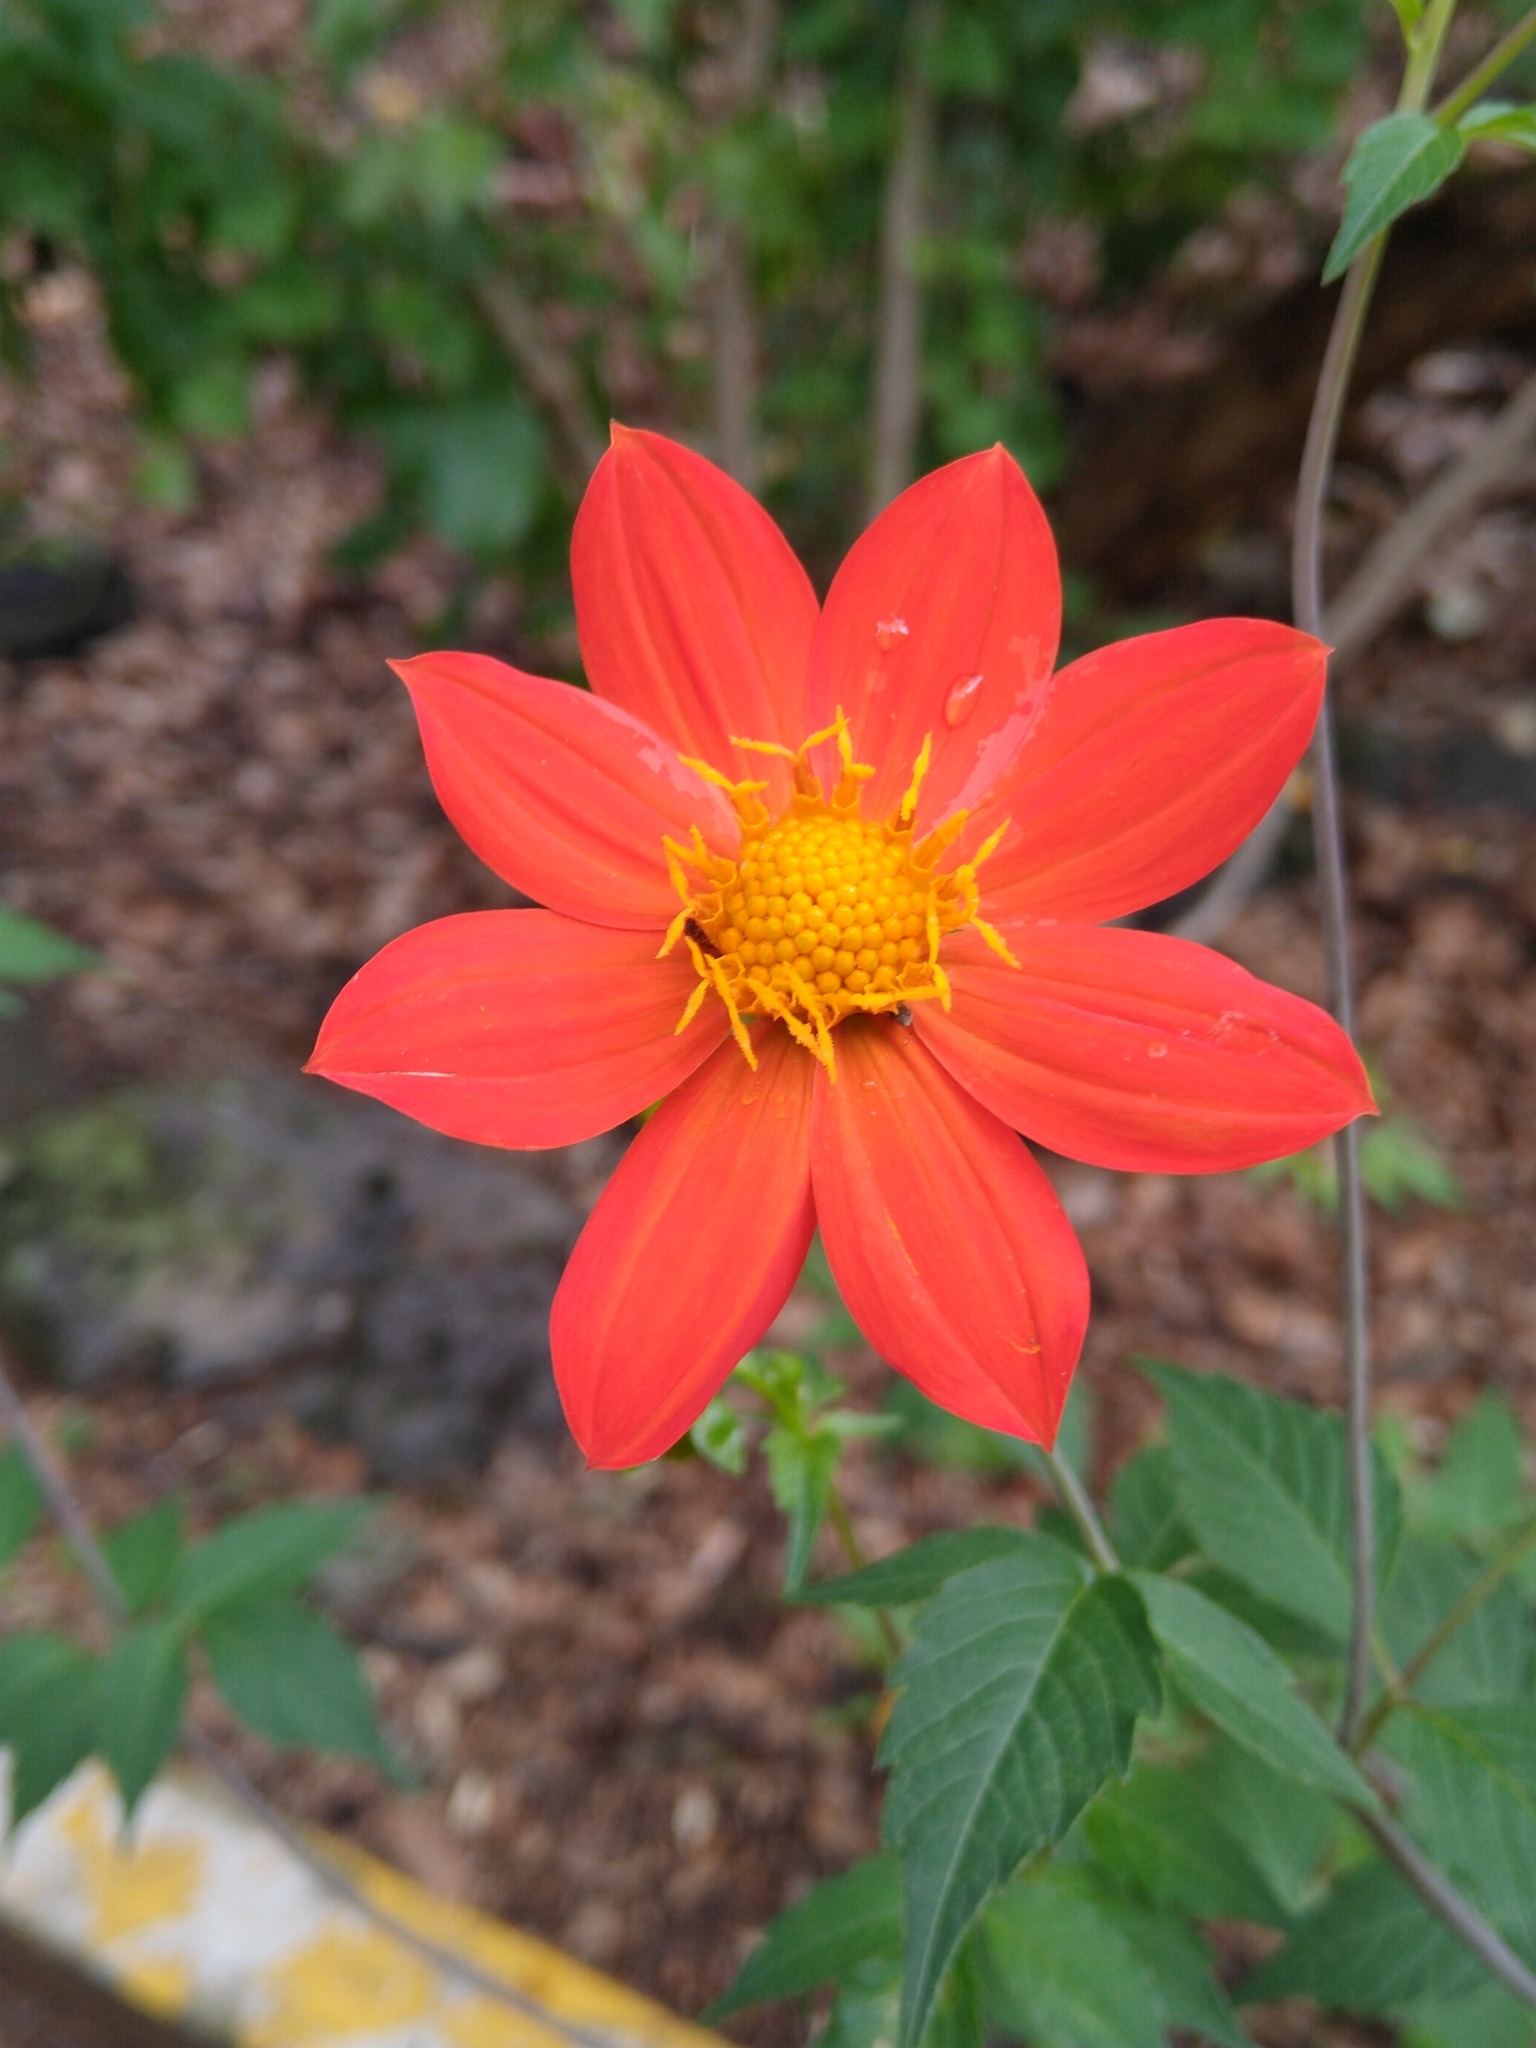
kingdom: Plantae
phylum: Tracheophyta
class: Magnoliopsida
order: Asterales
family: Asteraceae
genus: Dahlia
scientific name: Dahlia coccinea
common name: Red dahlia
